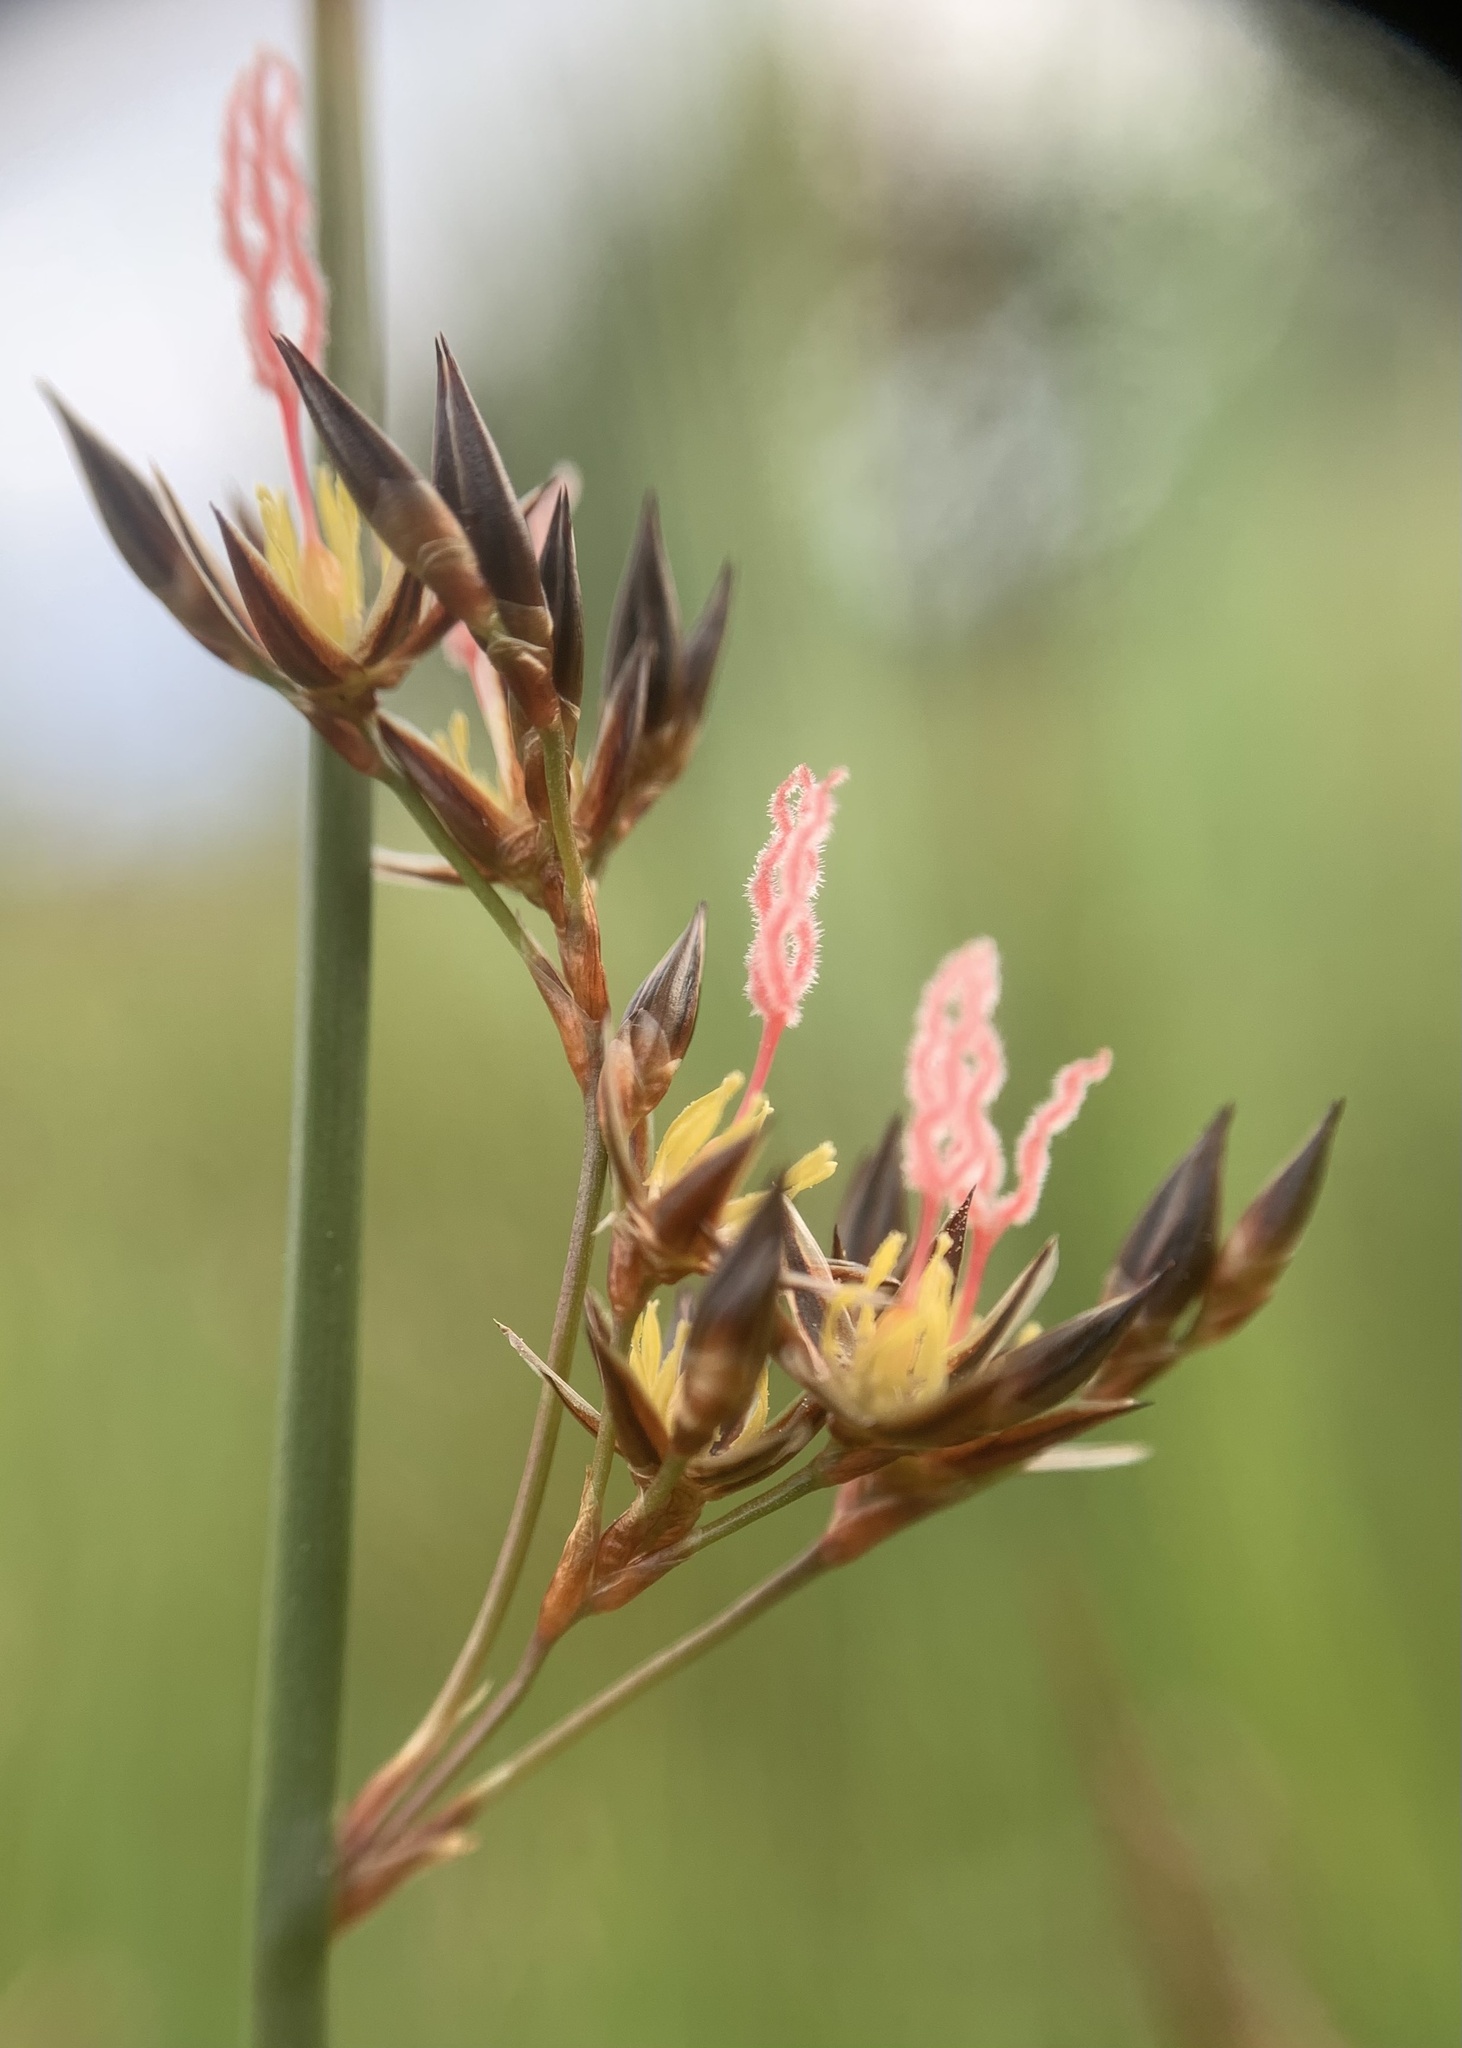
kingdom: Plantae
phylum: Tracheophyta
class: Liliopsida
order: Poales
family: Juncaceae
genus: Juncus
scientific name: Juncus balticus
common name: Baltic rush
